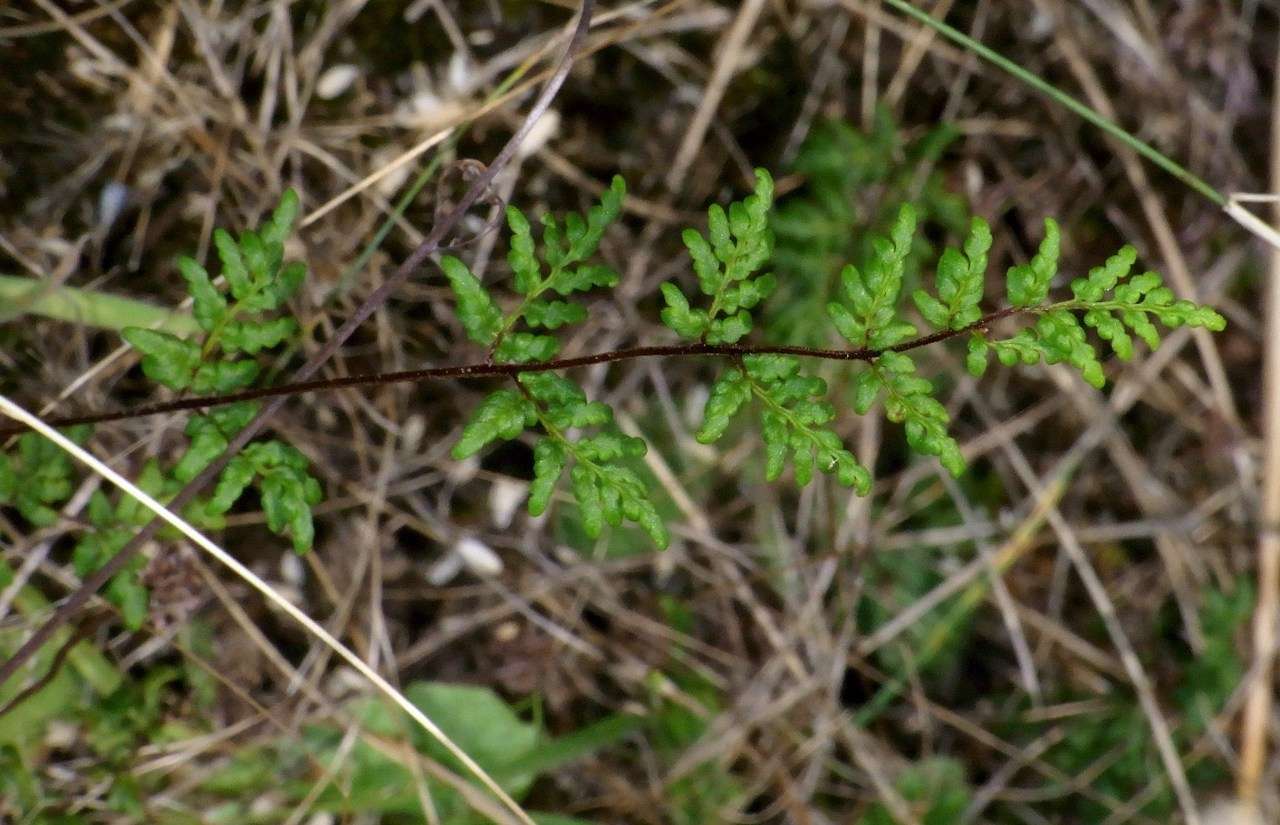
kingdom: Plantae
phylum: Tracheophyta
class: Polypodiopsida
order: Polypodiales
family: Pteridaceae
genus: Cheilanthes
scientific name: Cheilanthes sieberi
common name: Mulga fern
